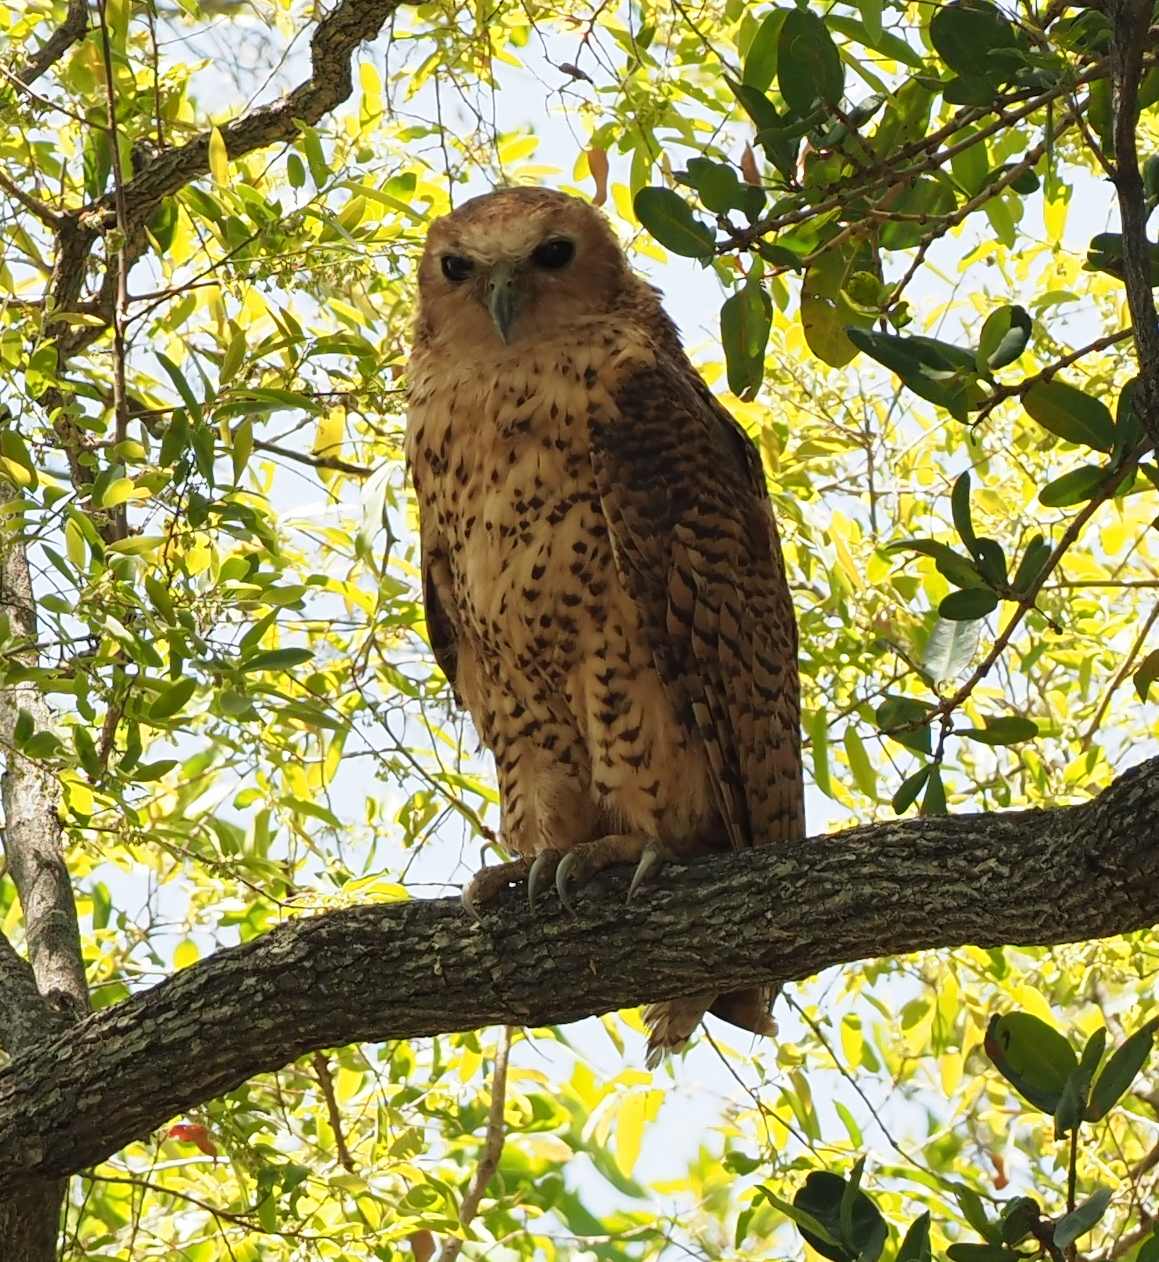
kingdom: Animalia
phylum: Chordata
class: Aves
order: Strigiformes
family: Strigidae
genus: Scotopelia
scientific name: Scotopelia peli
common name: Pel's fishing owl
